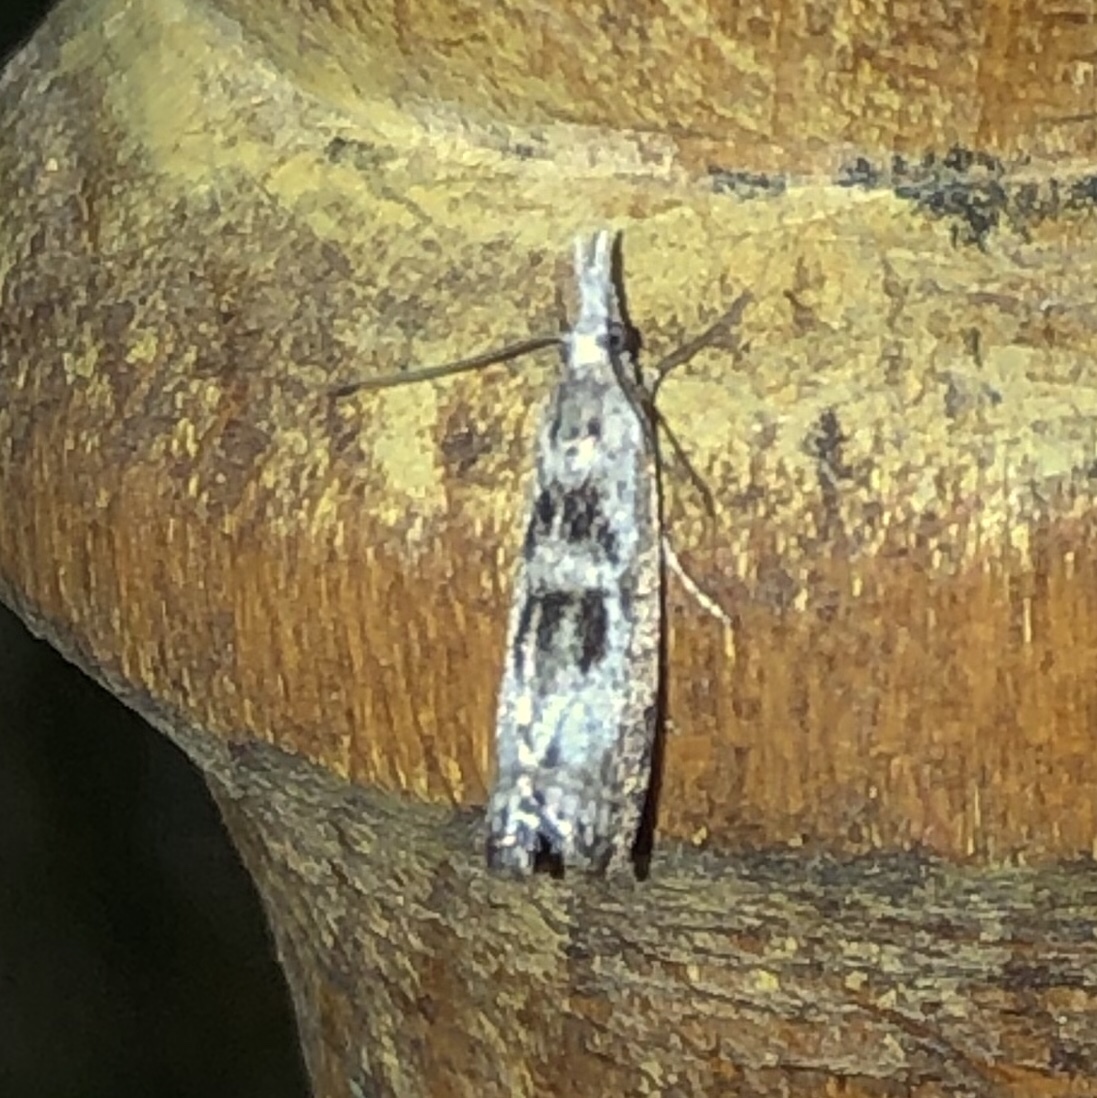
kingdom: Animalia
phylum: Arthropoda
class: Insecta
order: Lepidoptera
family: Crambidae
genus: Microcrambus
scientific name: Microcrambus immunellus
